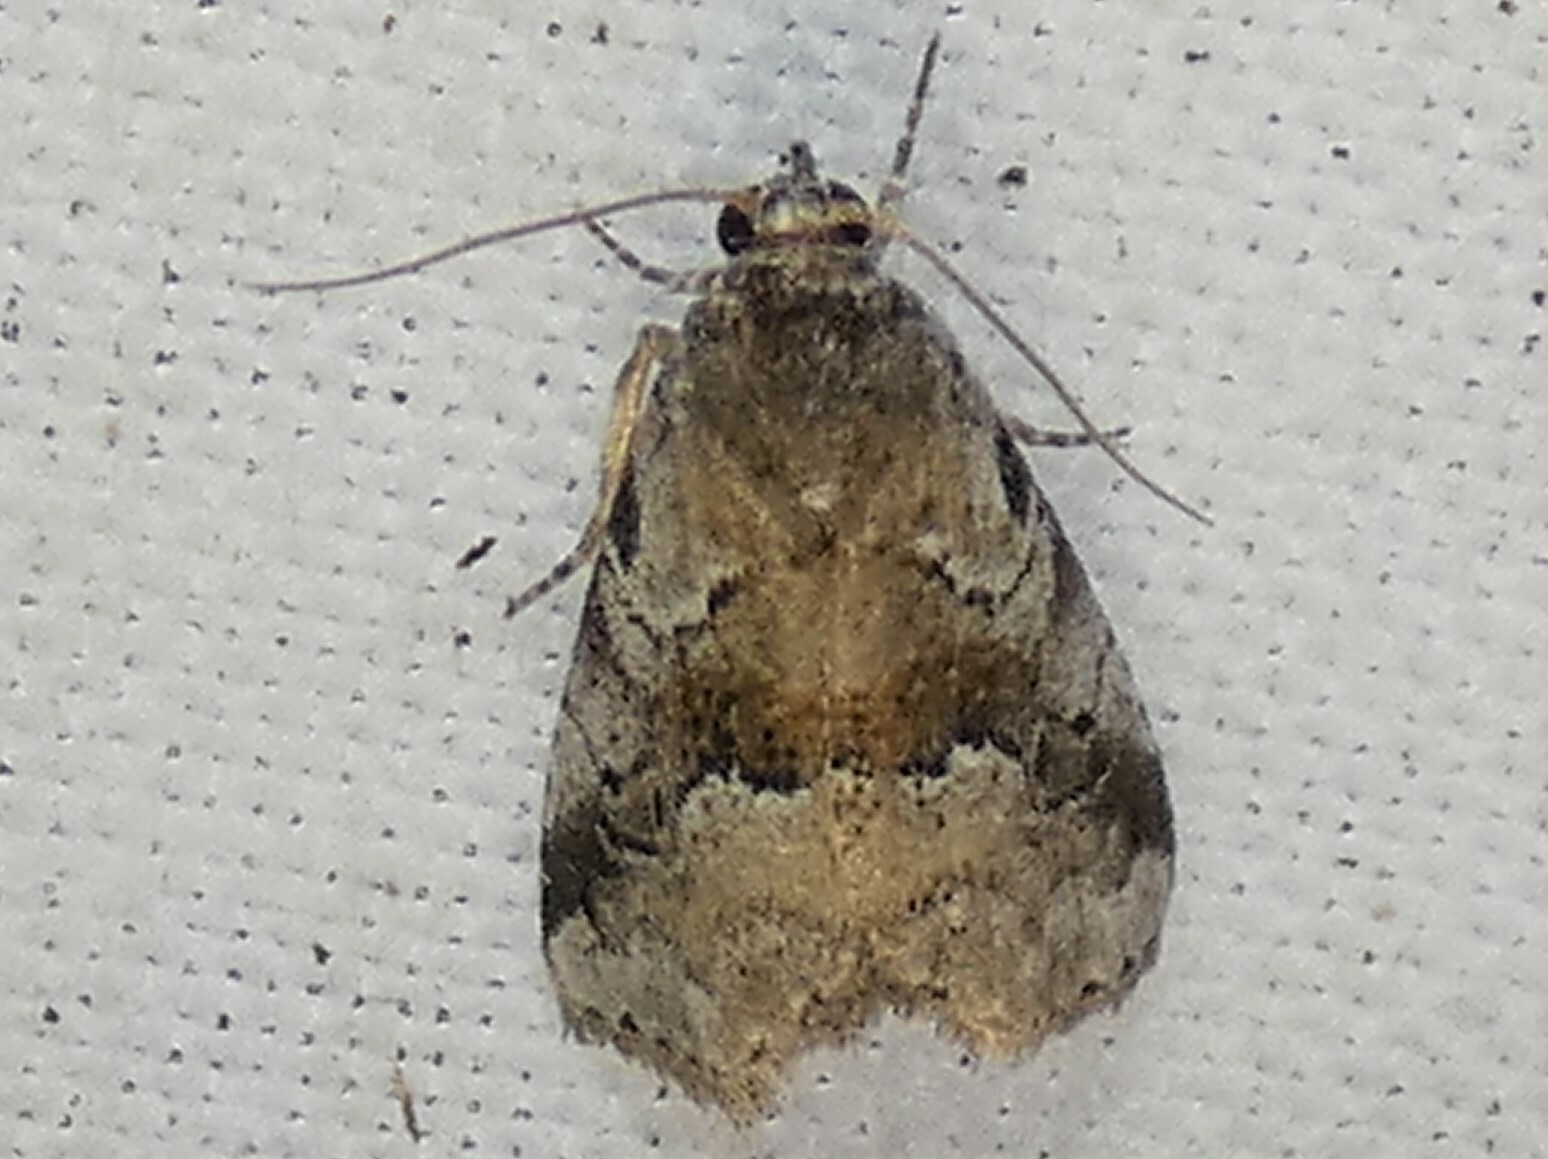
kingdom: Animalia
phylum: Arthropoda
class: Insecta
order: Lepidoptera
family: Erebidae
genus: Hyperstrotia
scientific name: Hyperstrotia nana
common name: White-lined graylet
